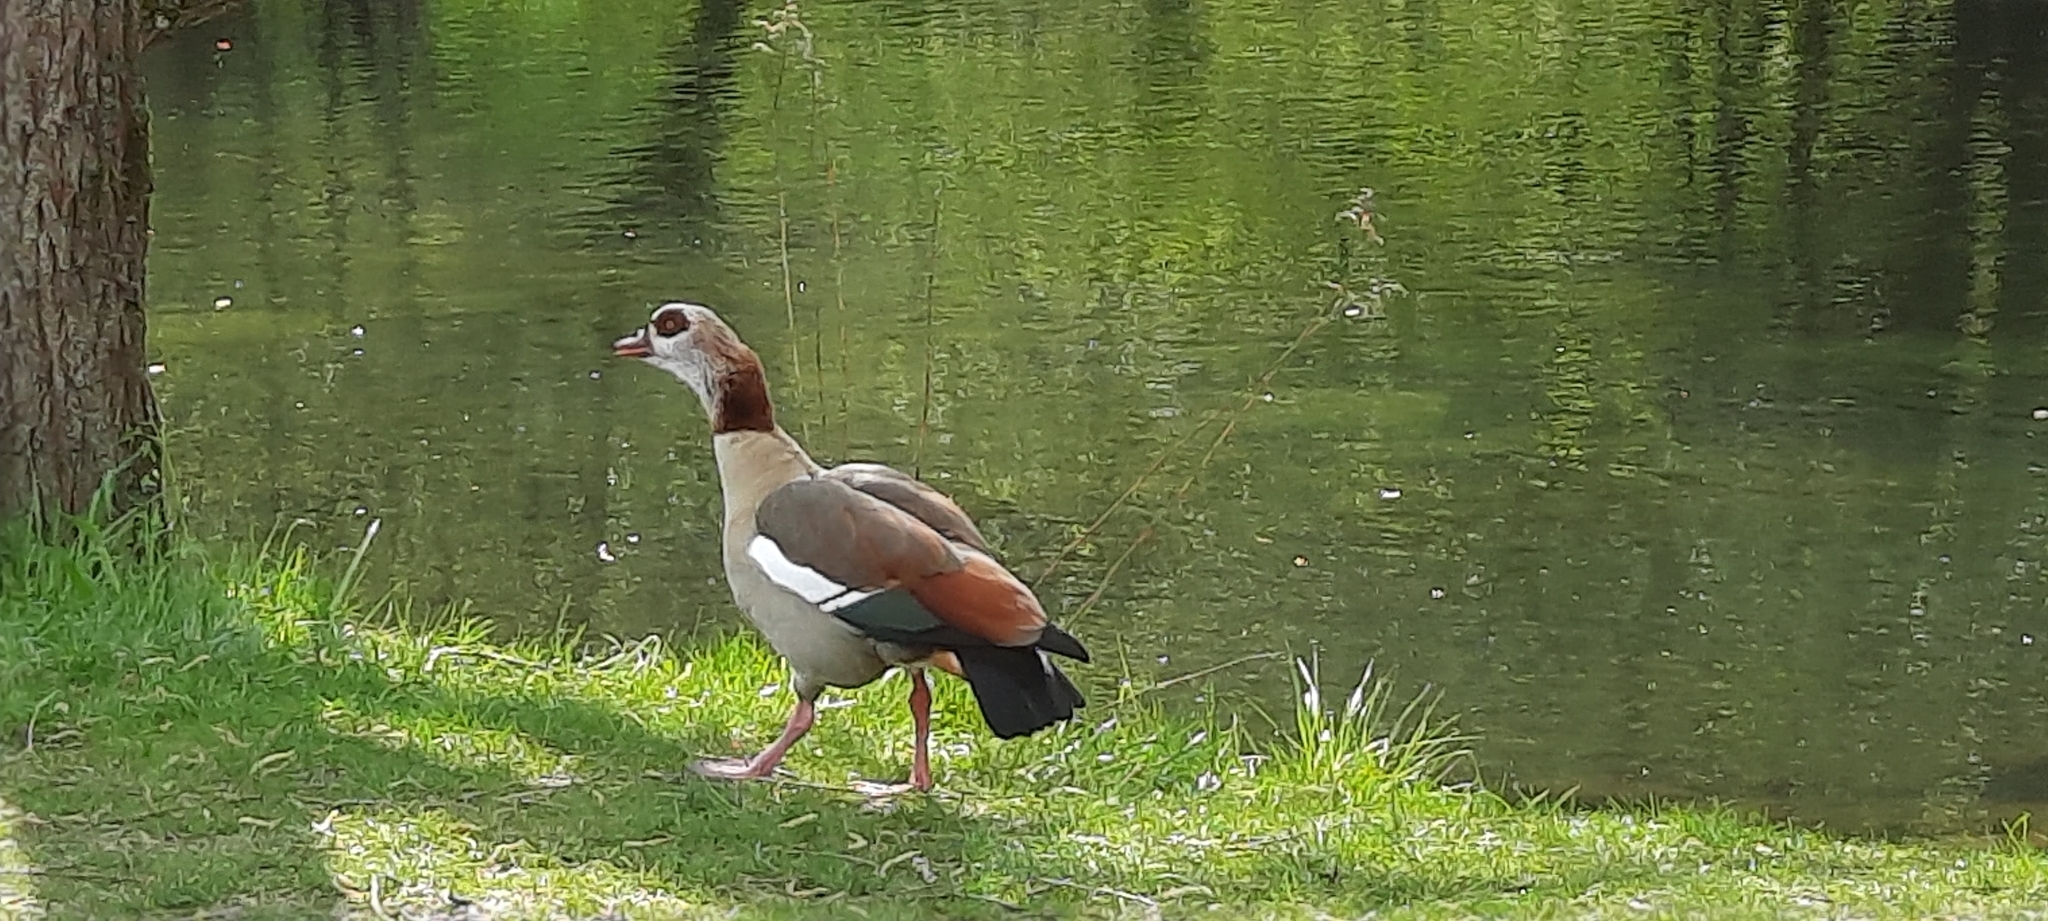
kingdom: Animalia
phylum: Chordata
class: Aves
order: Anseriformes
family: Anatidae
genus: Alopochen
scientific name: Alopochen aegyptiaca
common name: Egyptian goose
